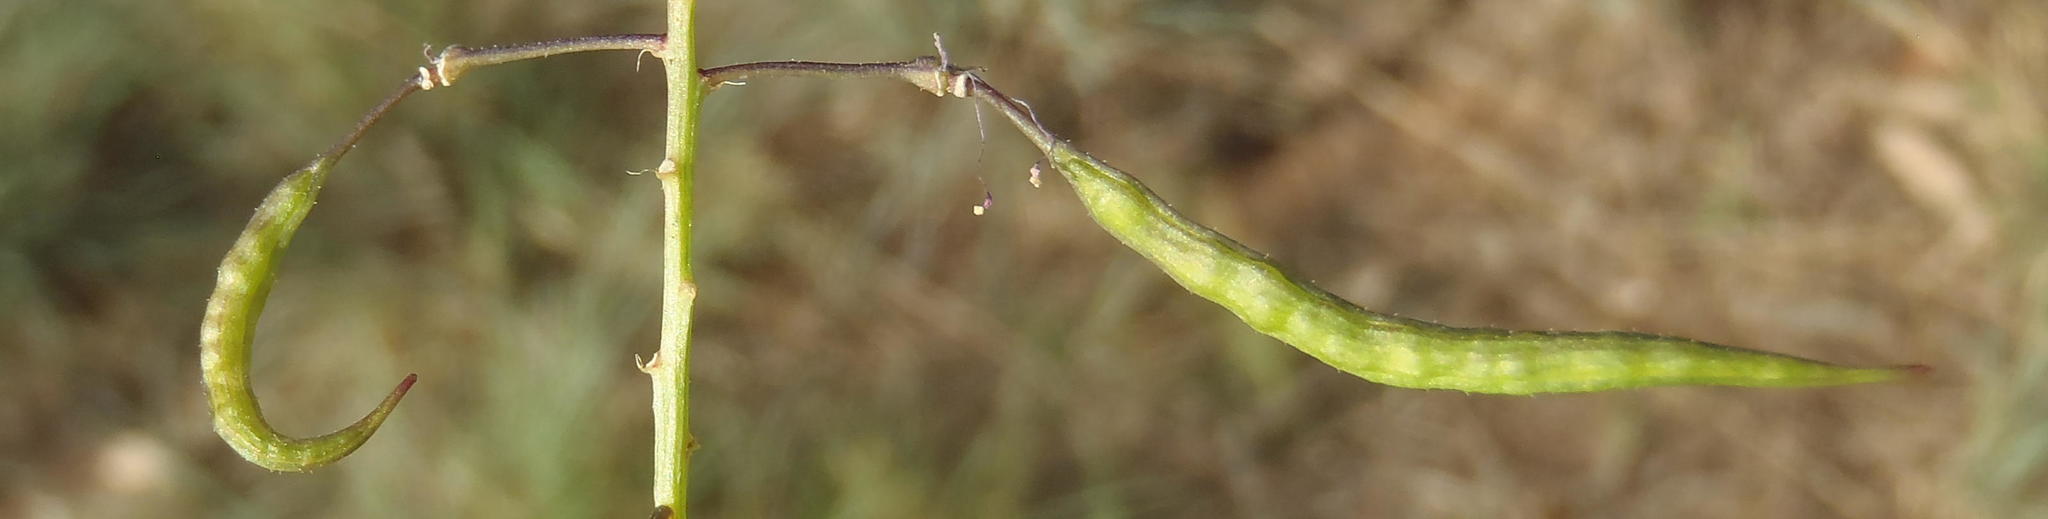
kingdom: Plantae
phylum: Tracheophyta
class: Magnoliopsida
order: Brassicales
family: Cleomaceae
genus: Sieruela
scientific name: Sieruela maculata
